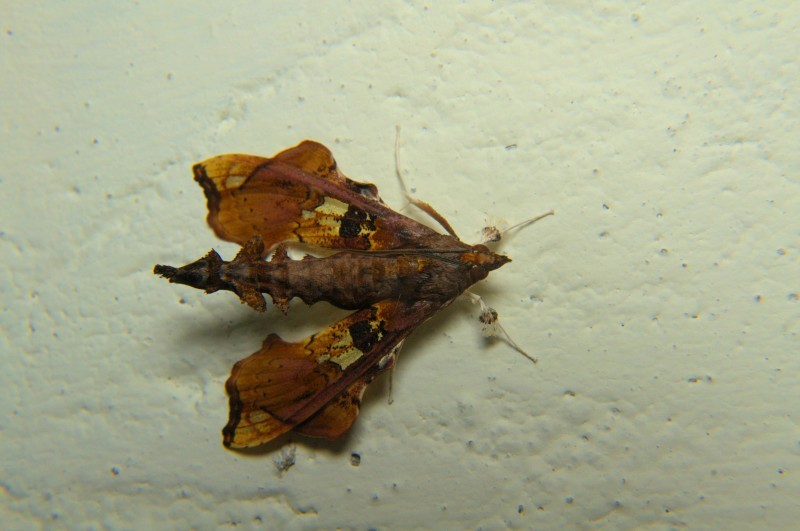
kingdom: Animalia
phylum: Arthropoda
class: Insecta
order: Lepidoptera
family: Crambidae
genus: Terastia
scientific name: Terastia egialealis
